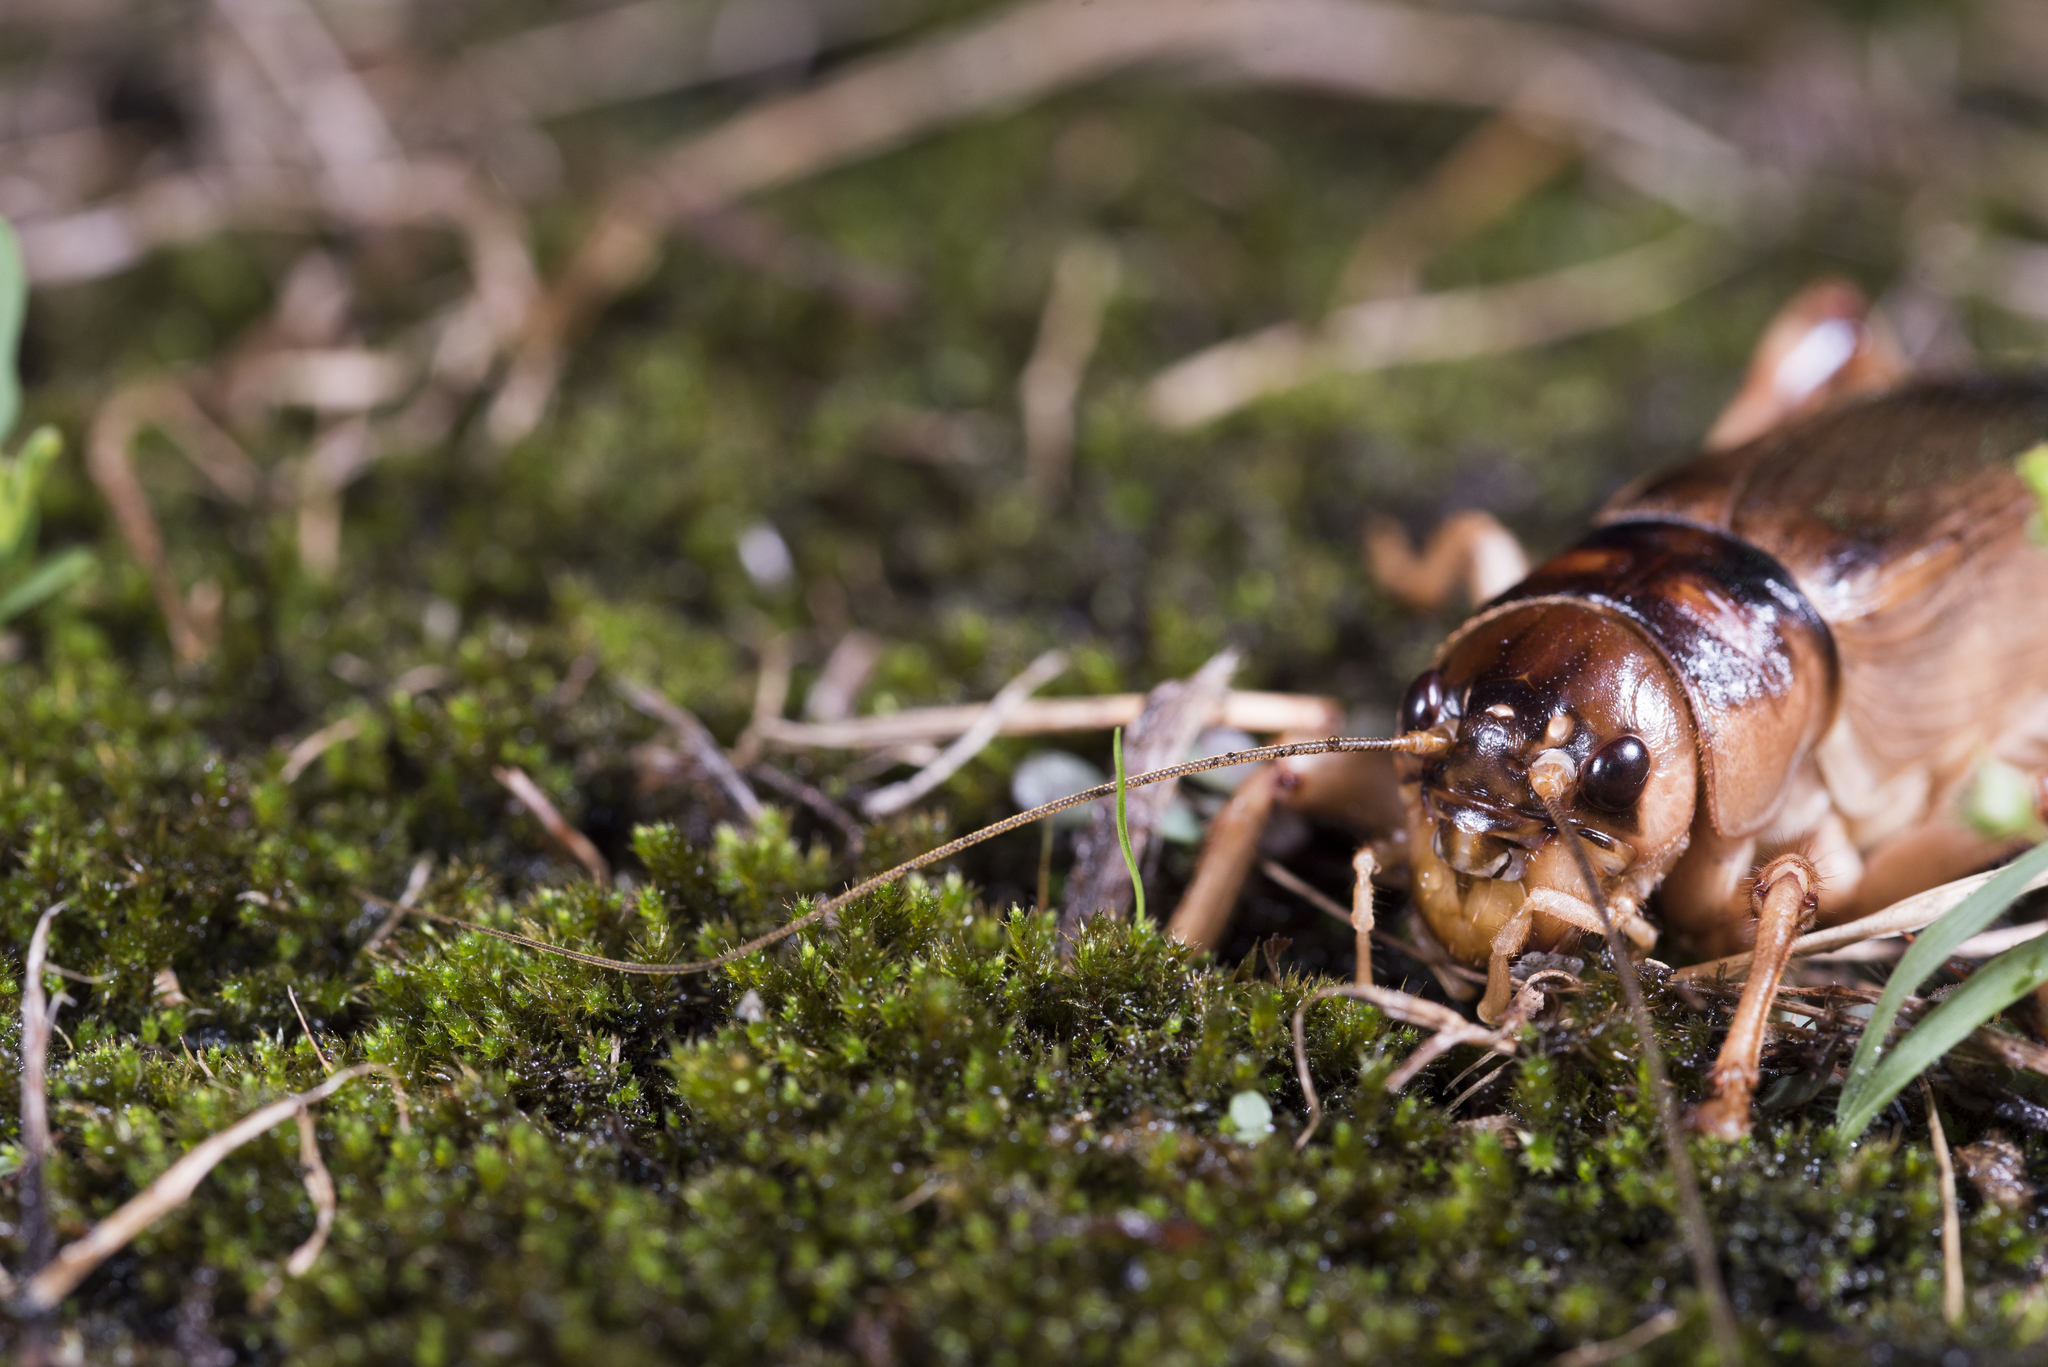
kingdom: Animalia
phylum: Arthropoda
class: Insecta
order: Orthoptera
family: Gryllidae
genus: Tarbinskiellus
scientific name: Tarbinskiellus portentosus
